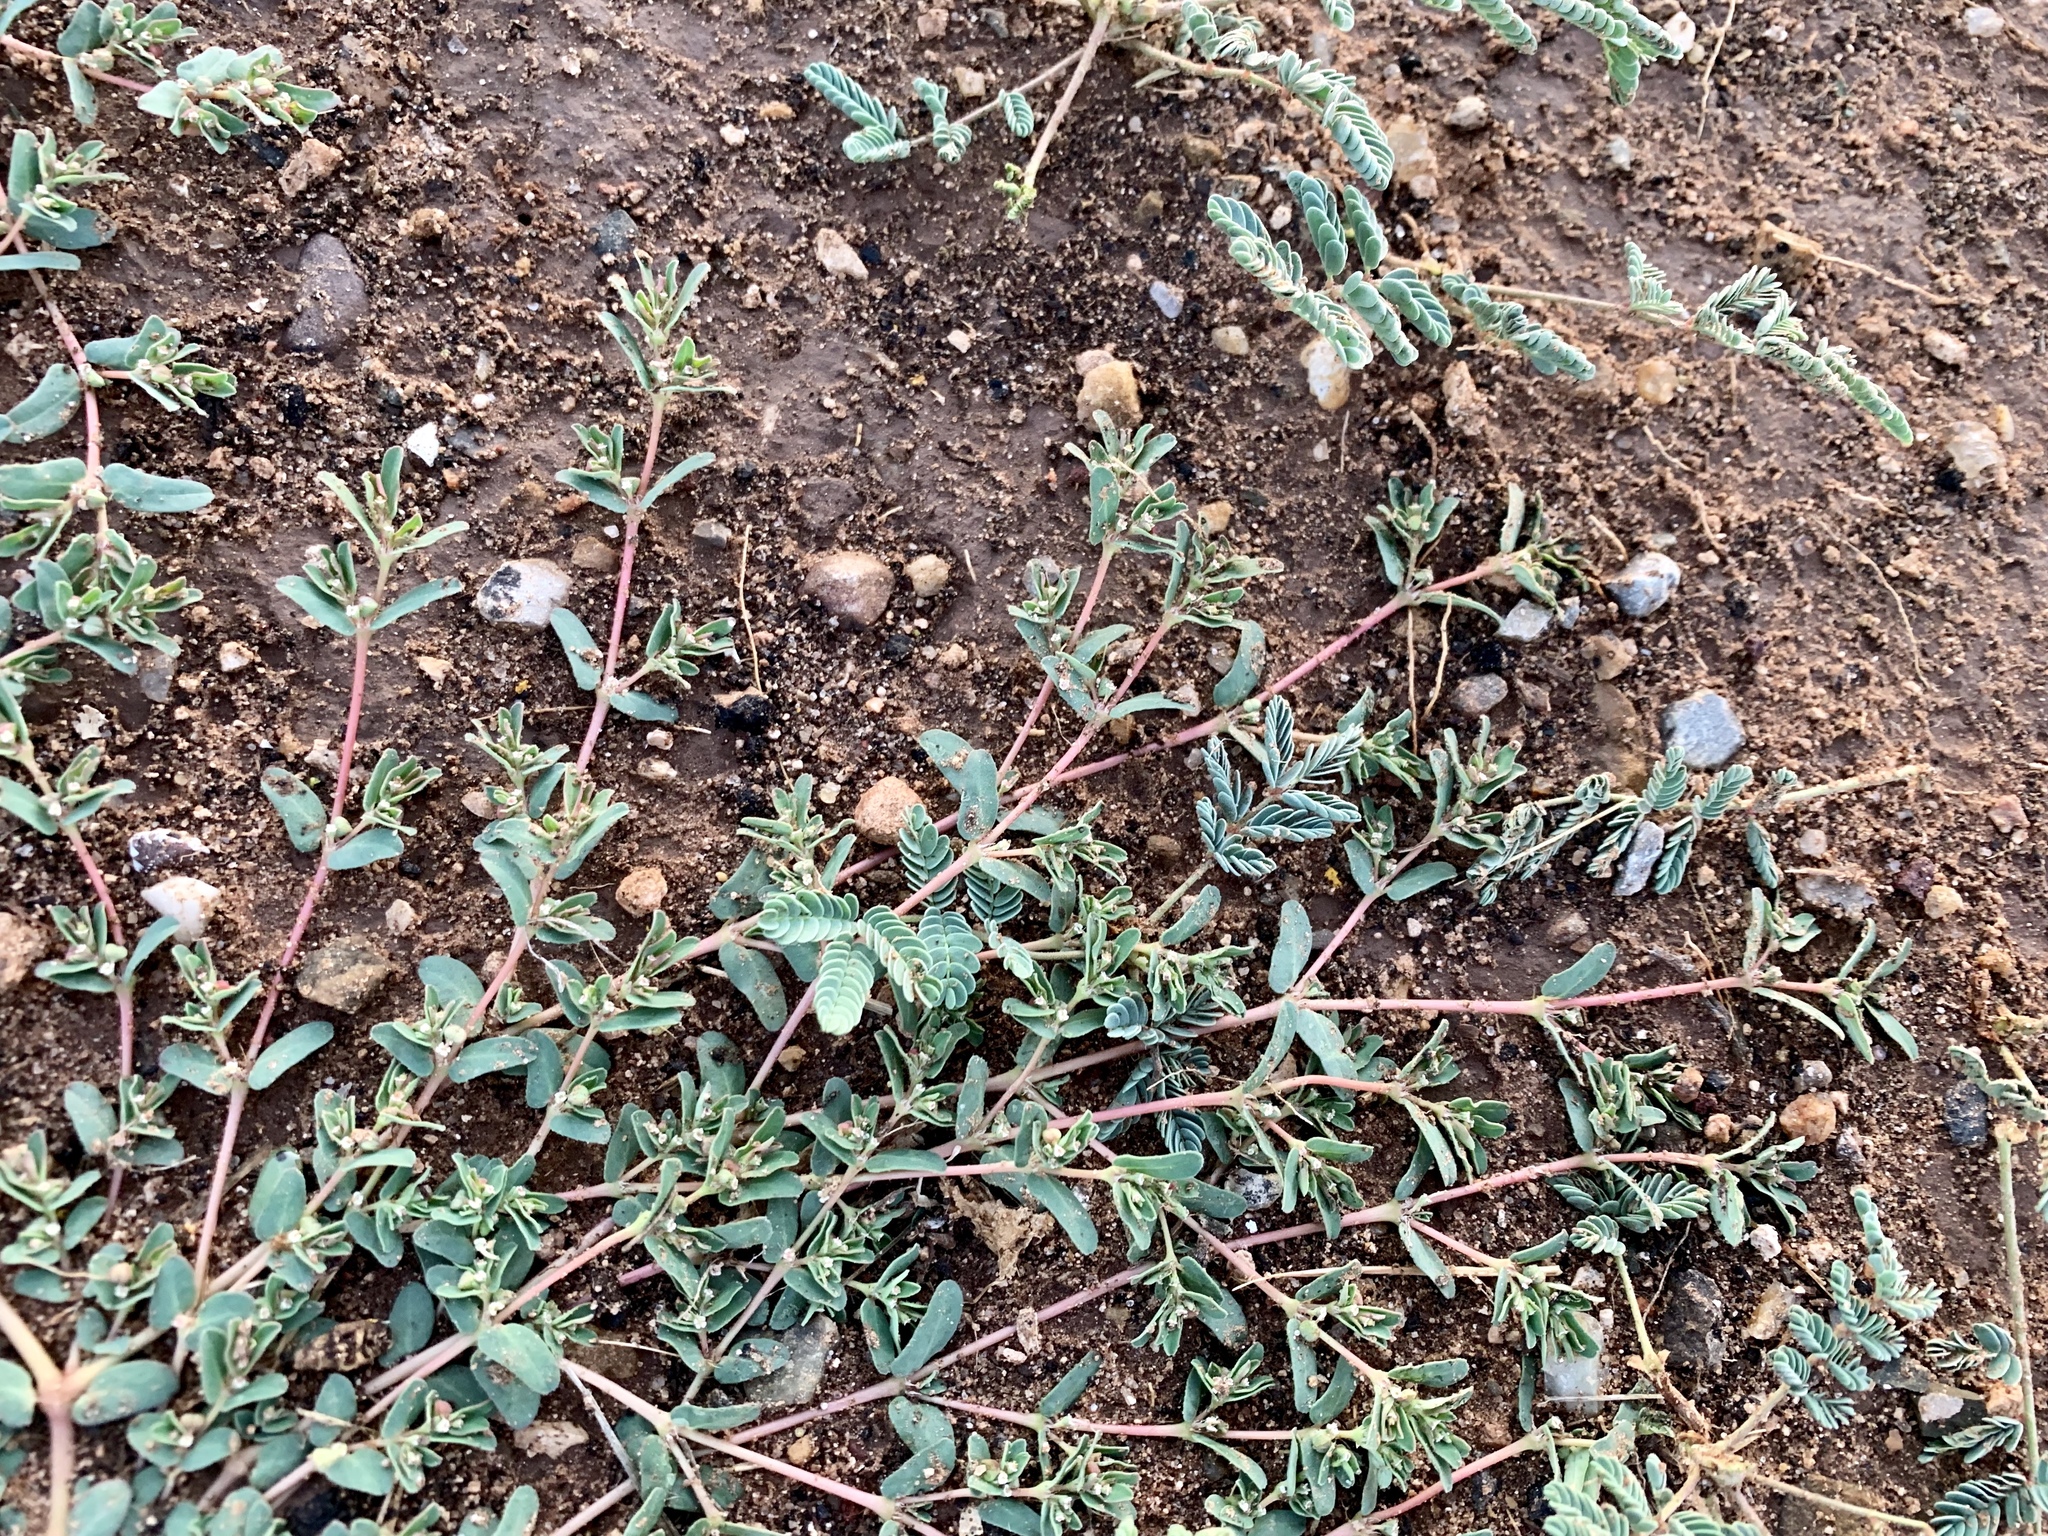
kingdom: Plantae
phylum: Tracheophyta
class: Magnoliopsida
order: Malpighiales
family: Euphorbiaceae
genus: Euphorbia
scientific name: Euphorbia glyptosperma
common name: Corrugate-seeded spurge
